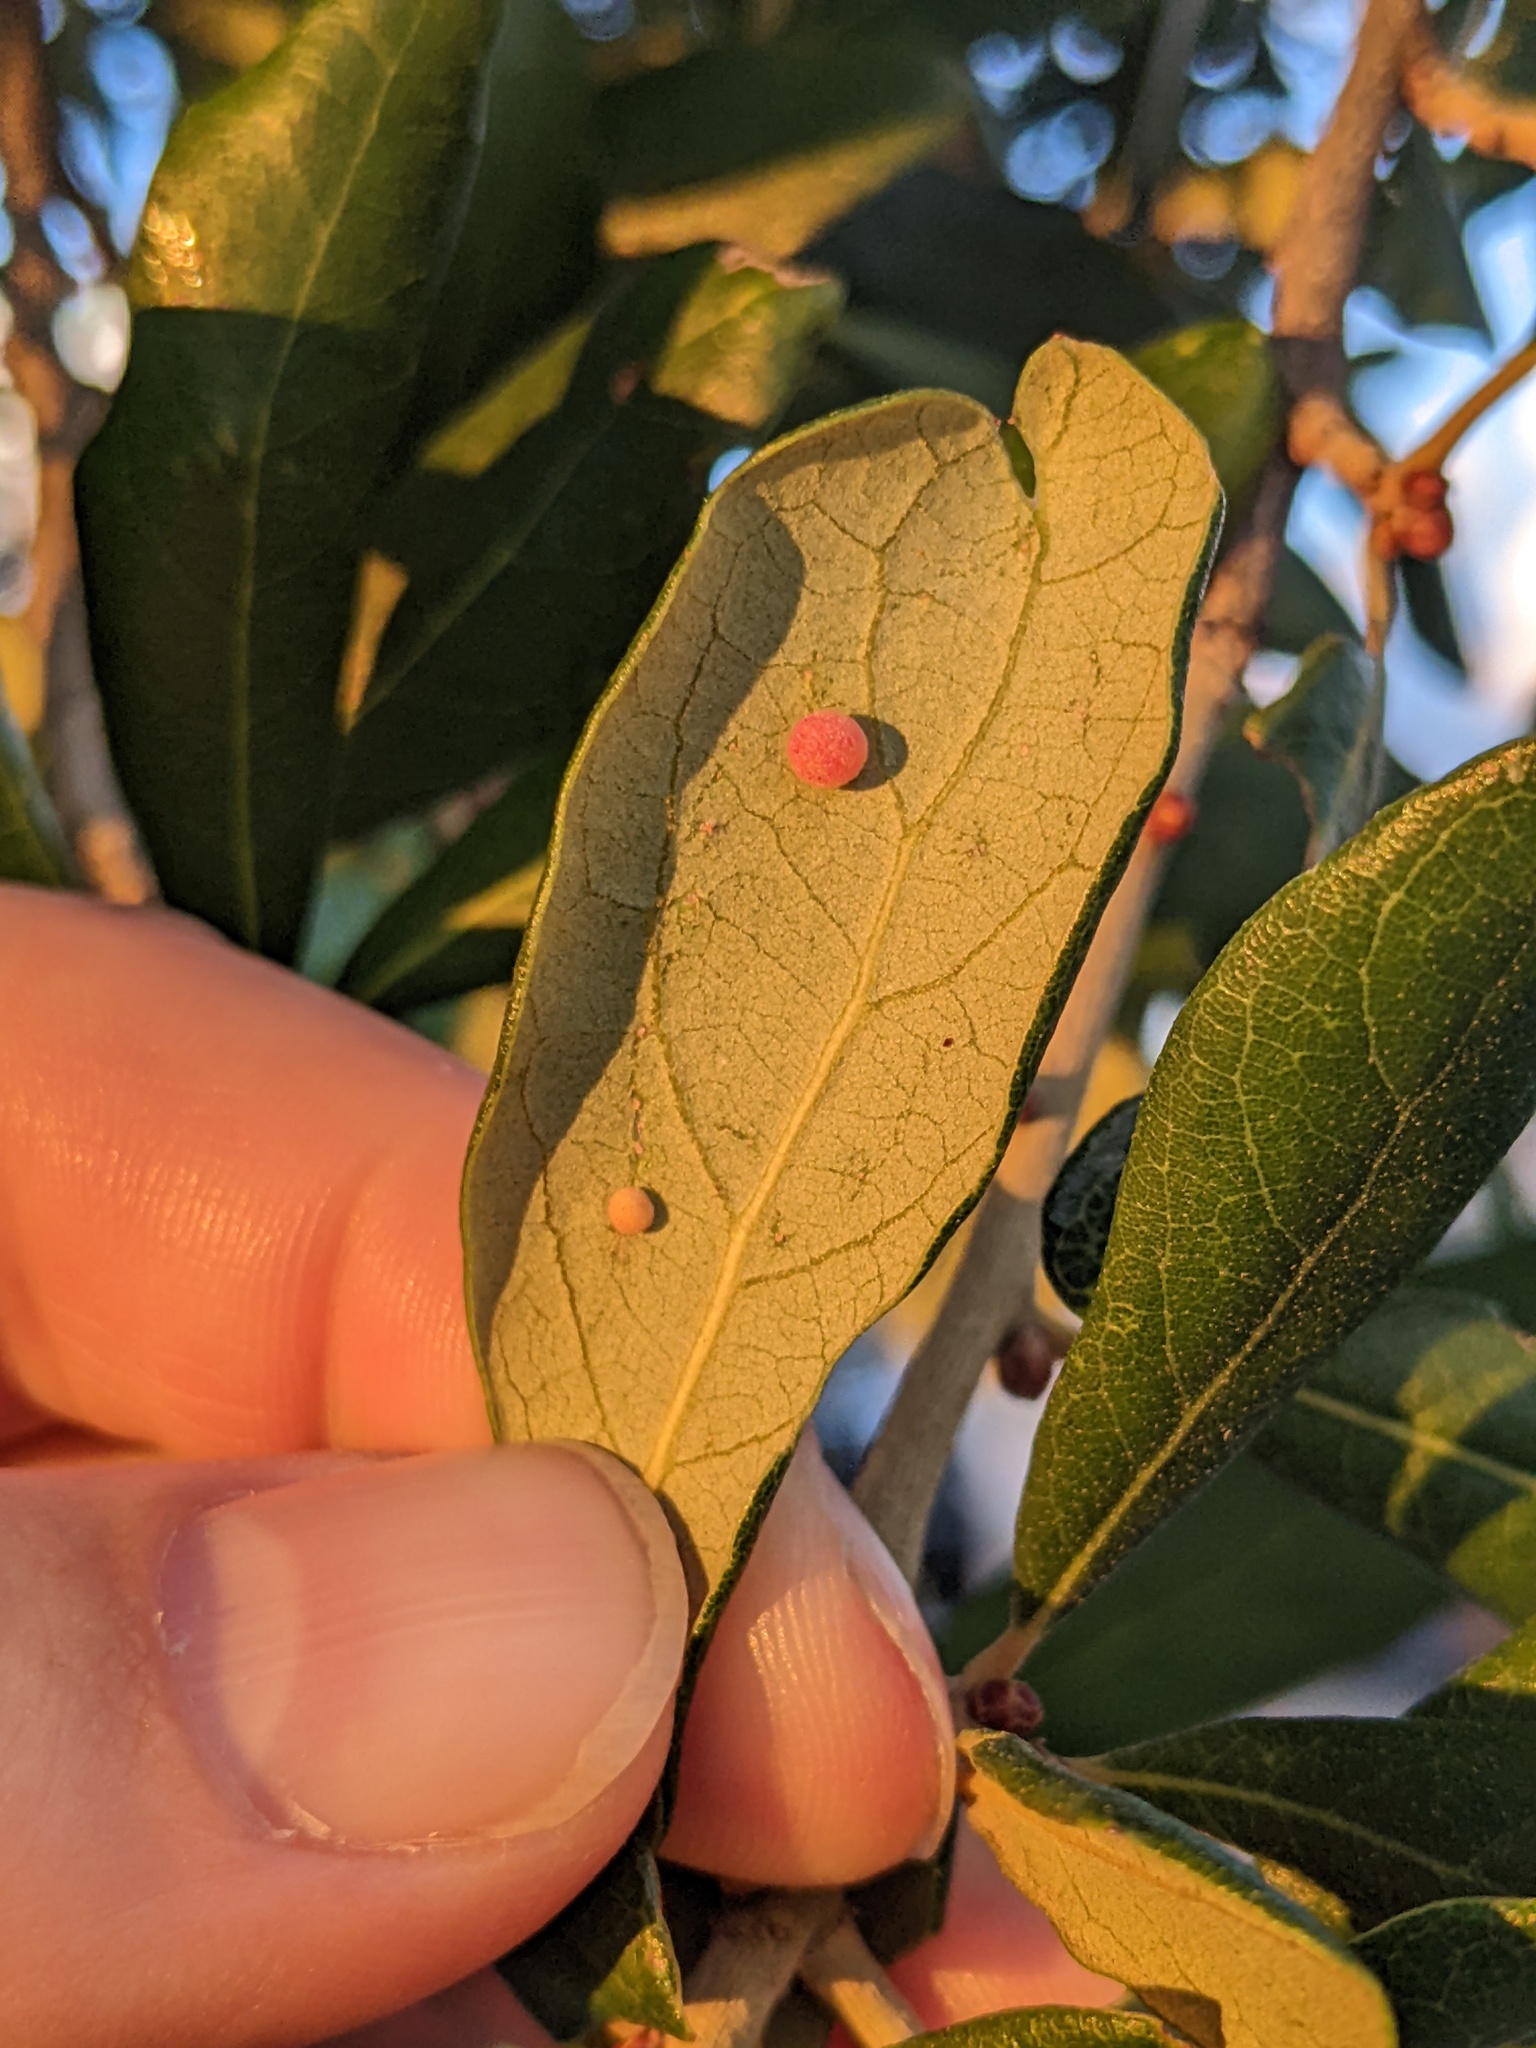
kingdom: Animalia
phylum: Arthropoda
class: Insecta
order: Hymenoptera
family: Cynipidae
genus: Belonocnema
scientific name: Belonocnema kinseyi
